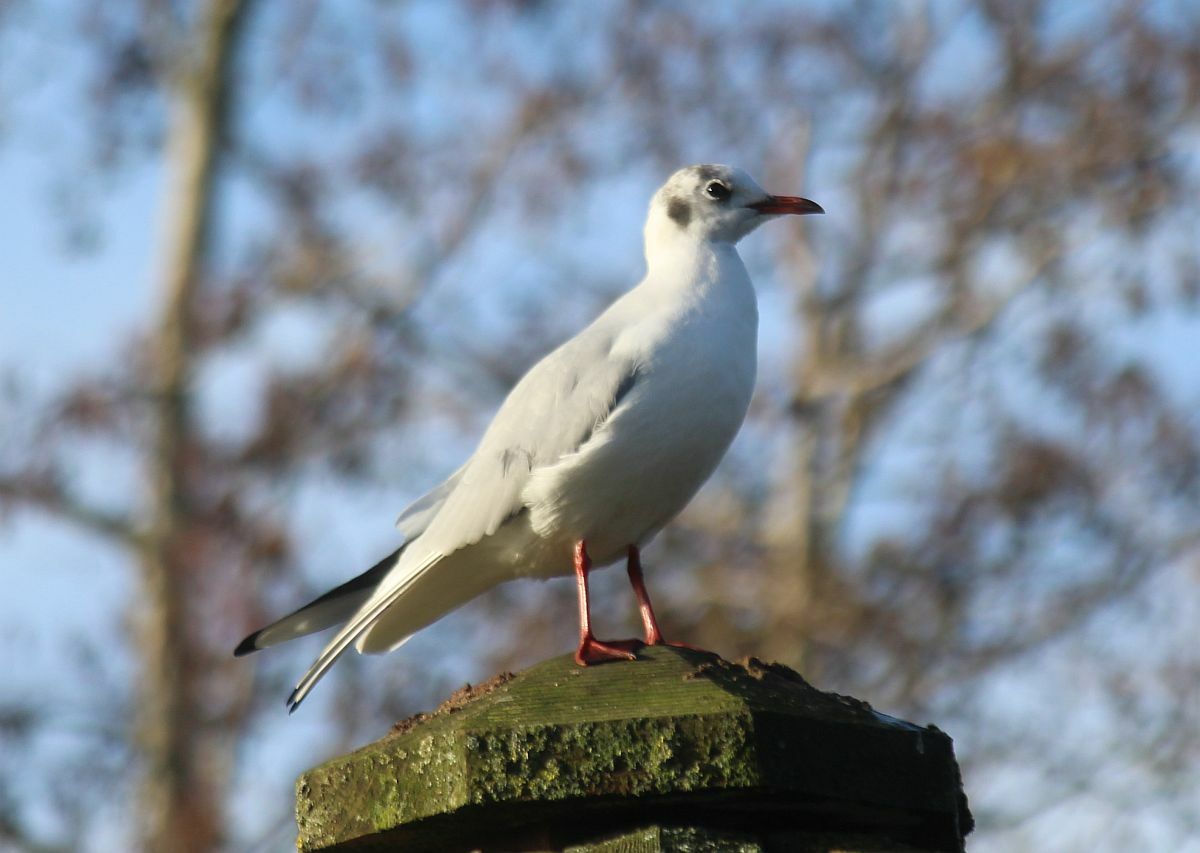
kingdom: Animalia
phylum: Chordata
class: Aves
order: Charadriiformes
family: Laridae
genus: Chroicocephalus
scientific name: Chroicocephalus ridibundus
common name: Black-headed gull
